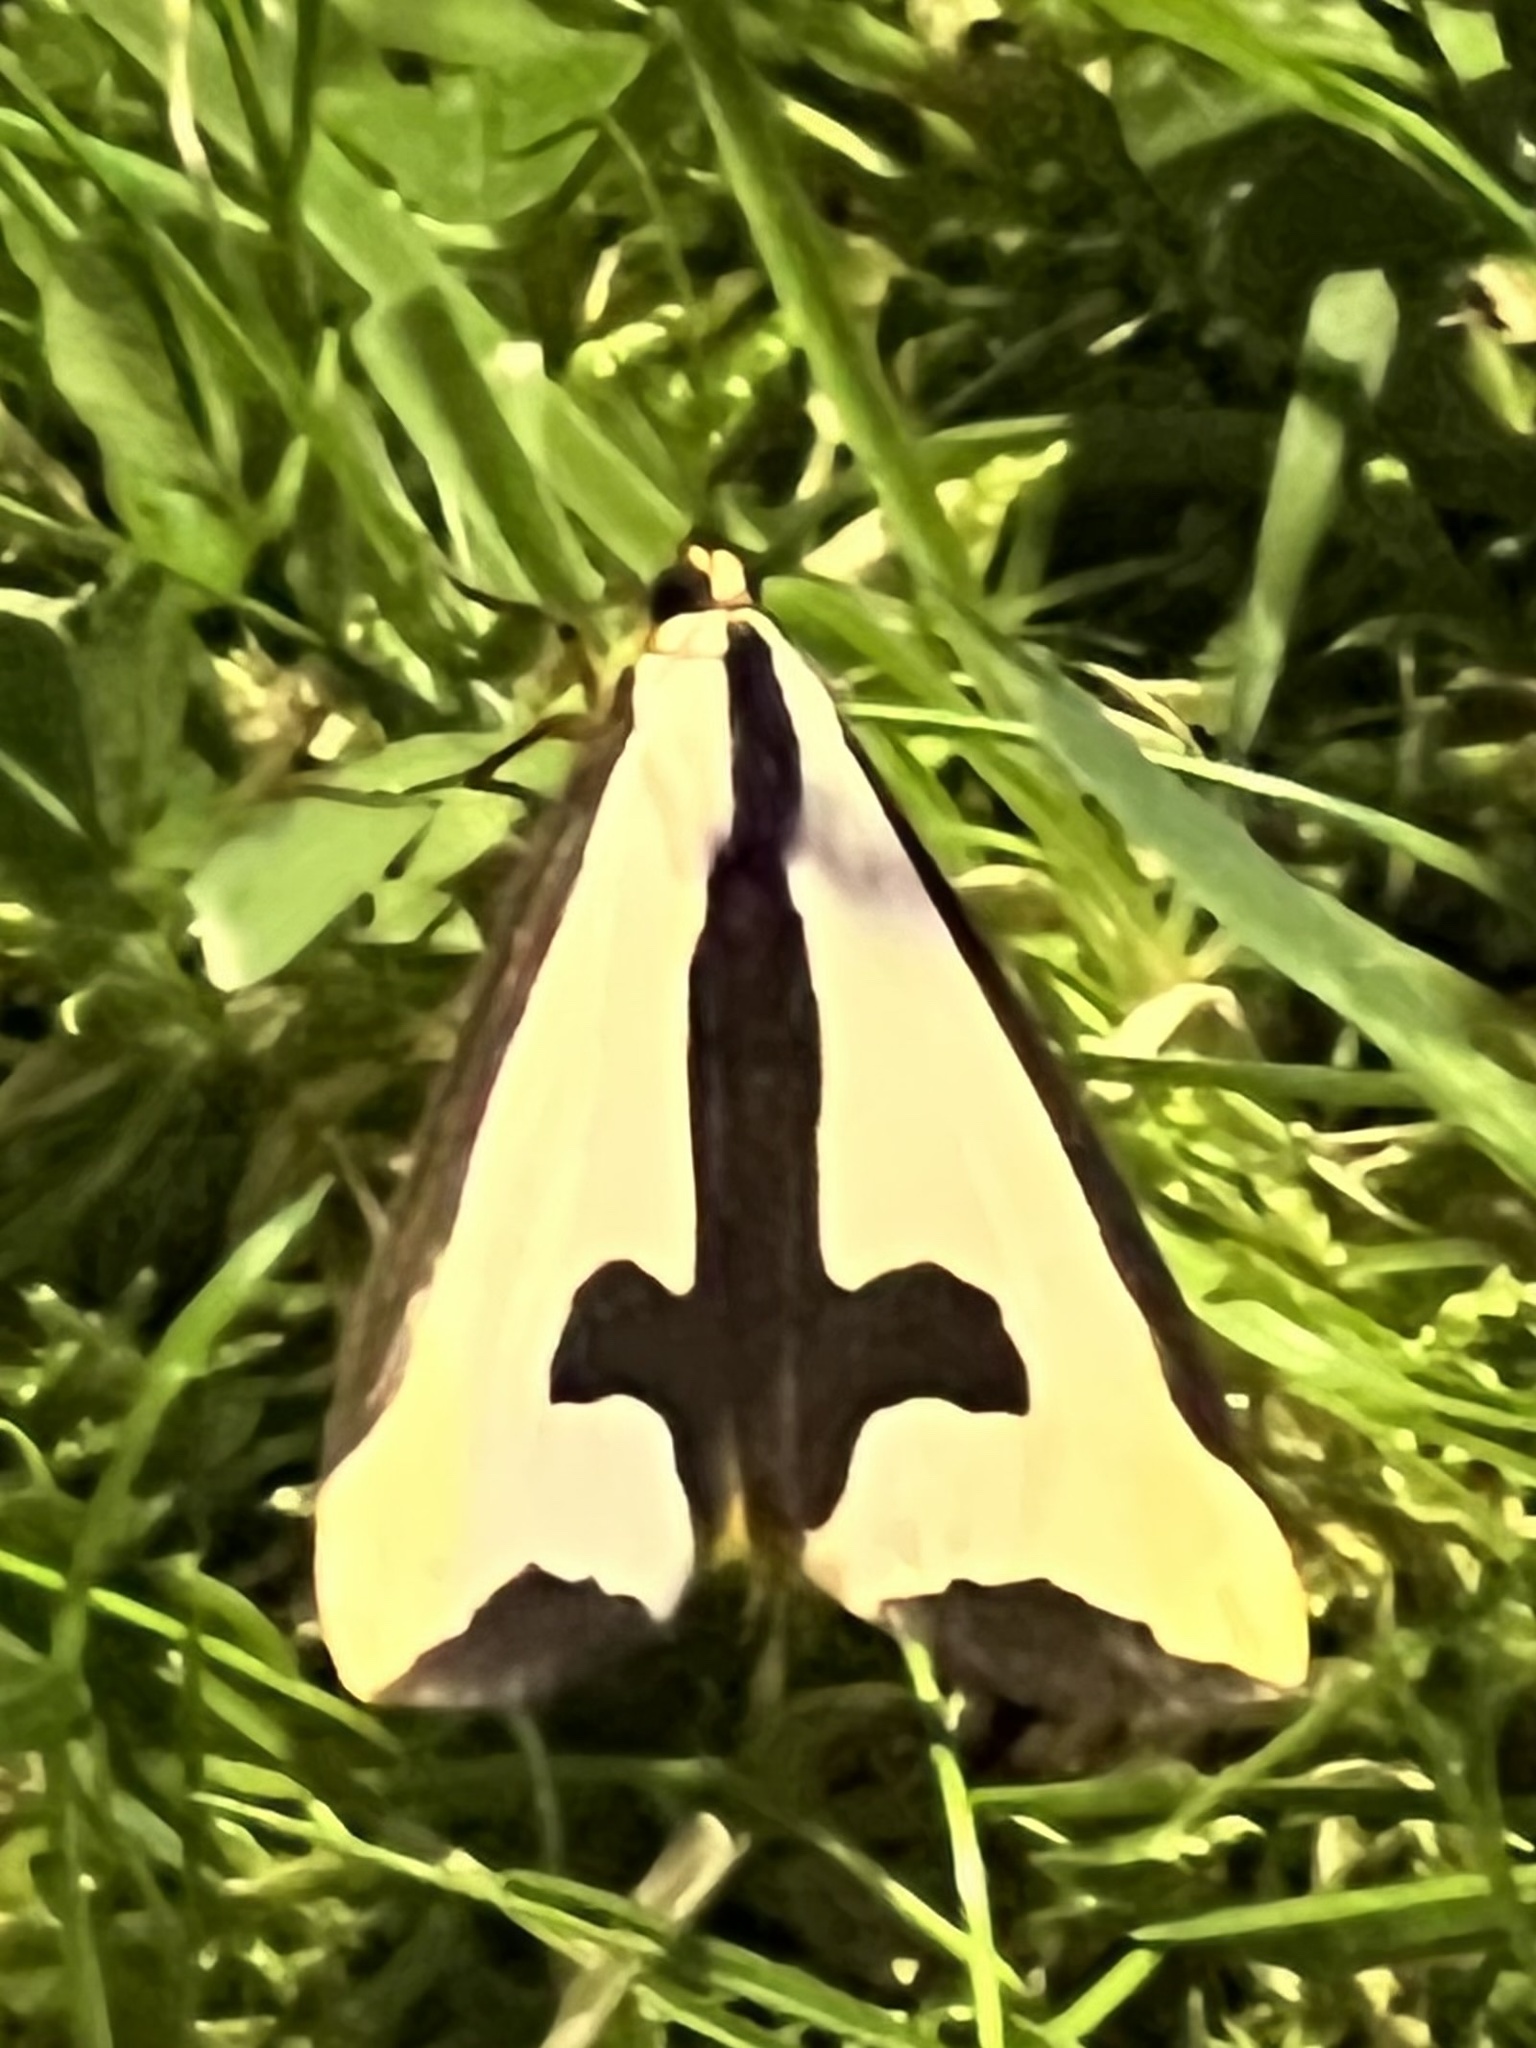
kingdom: Animalia
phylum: Arthropoda
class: Insecta
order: Lepidoptera
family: Erebidae
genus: Haploa
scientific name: Haploa clymene
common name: Clymene moth
